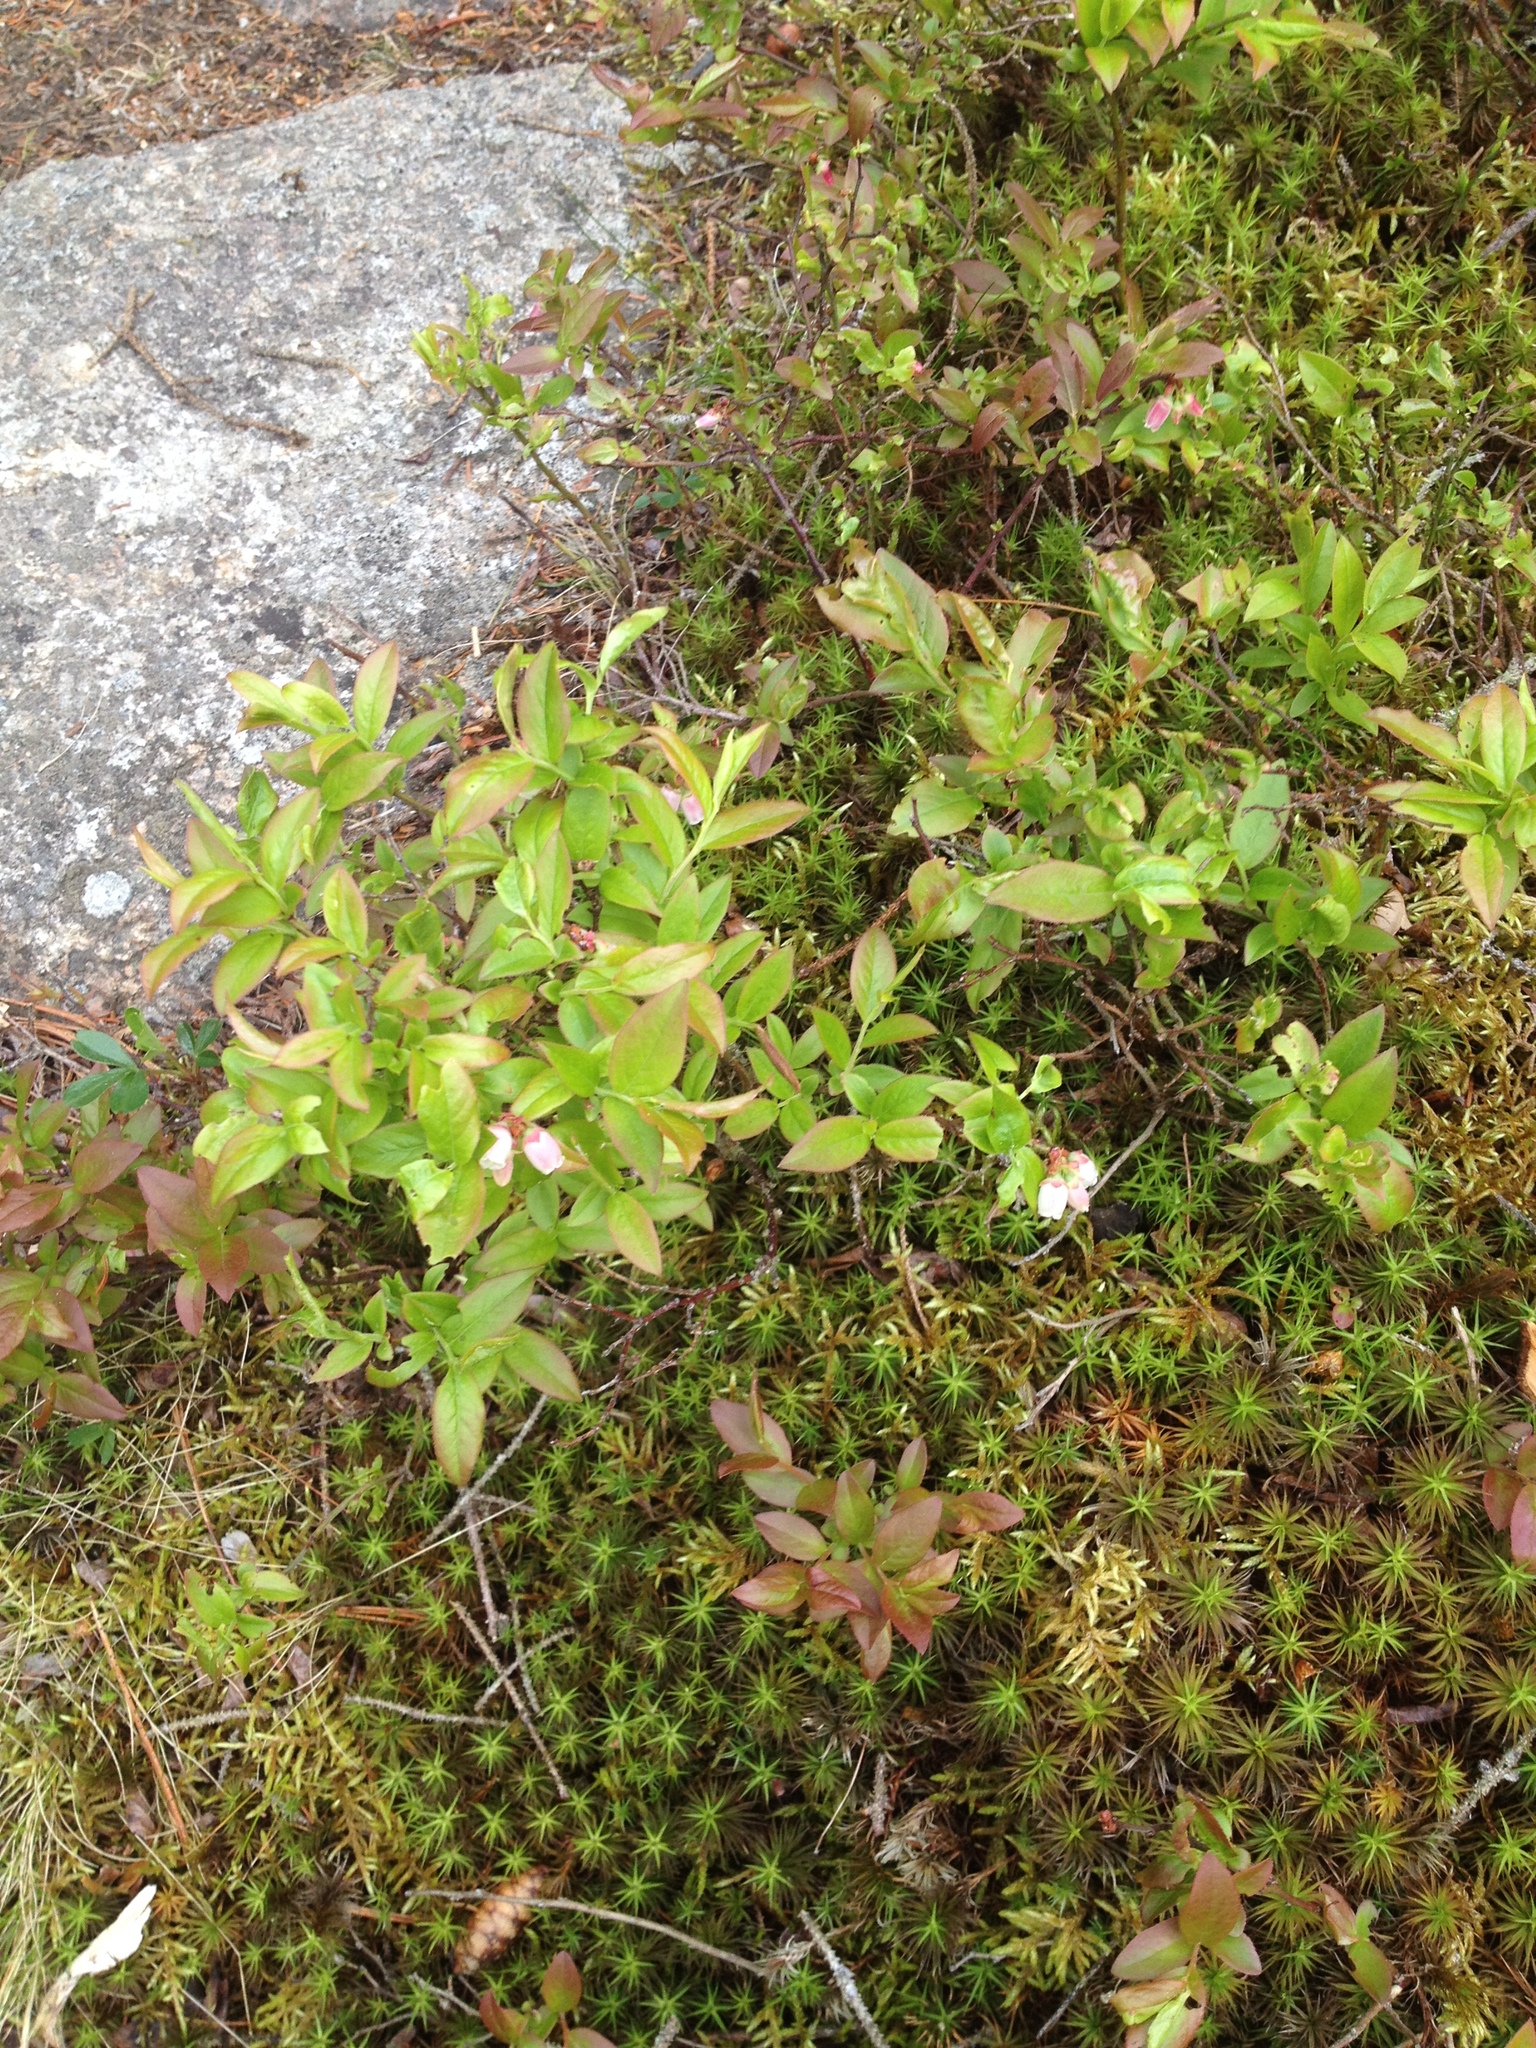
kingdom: Plantae
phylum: Tracheophyta
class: Magnoliopsida
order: Ericales
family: Ericaceae
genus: Vaccinium
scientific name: Vaccinium angustifolium
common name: Early lowbush blueberry
